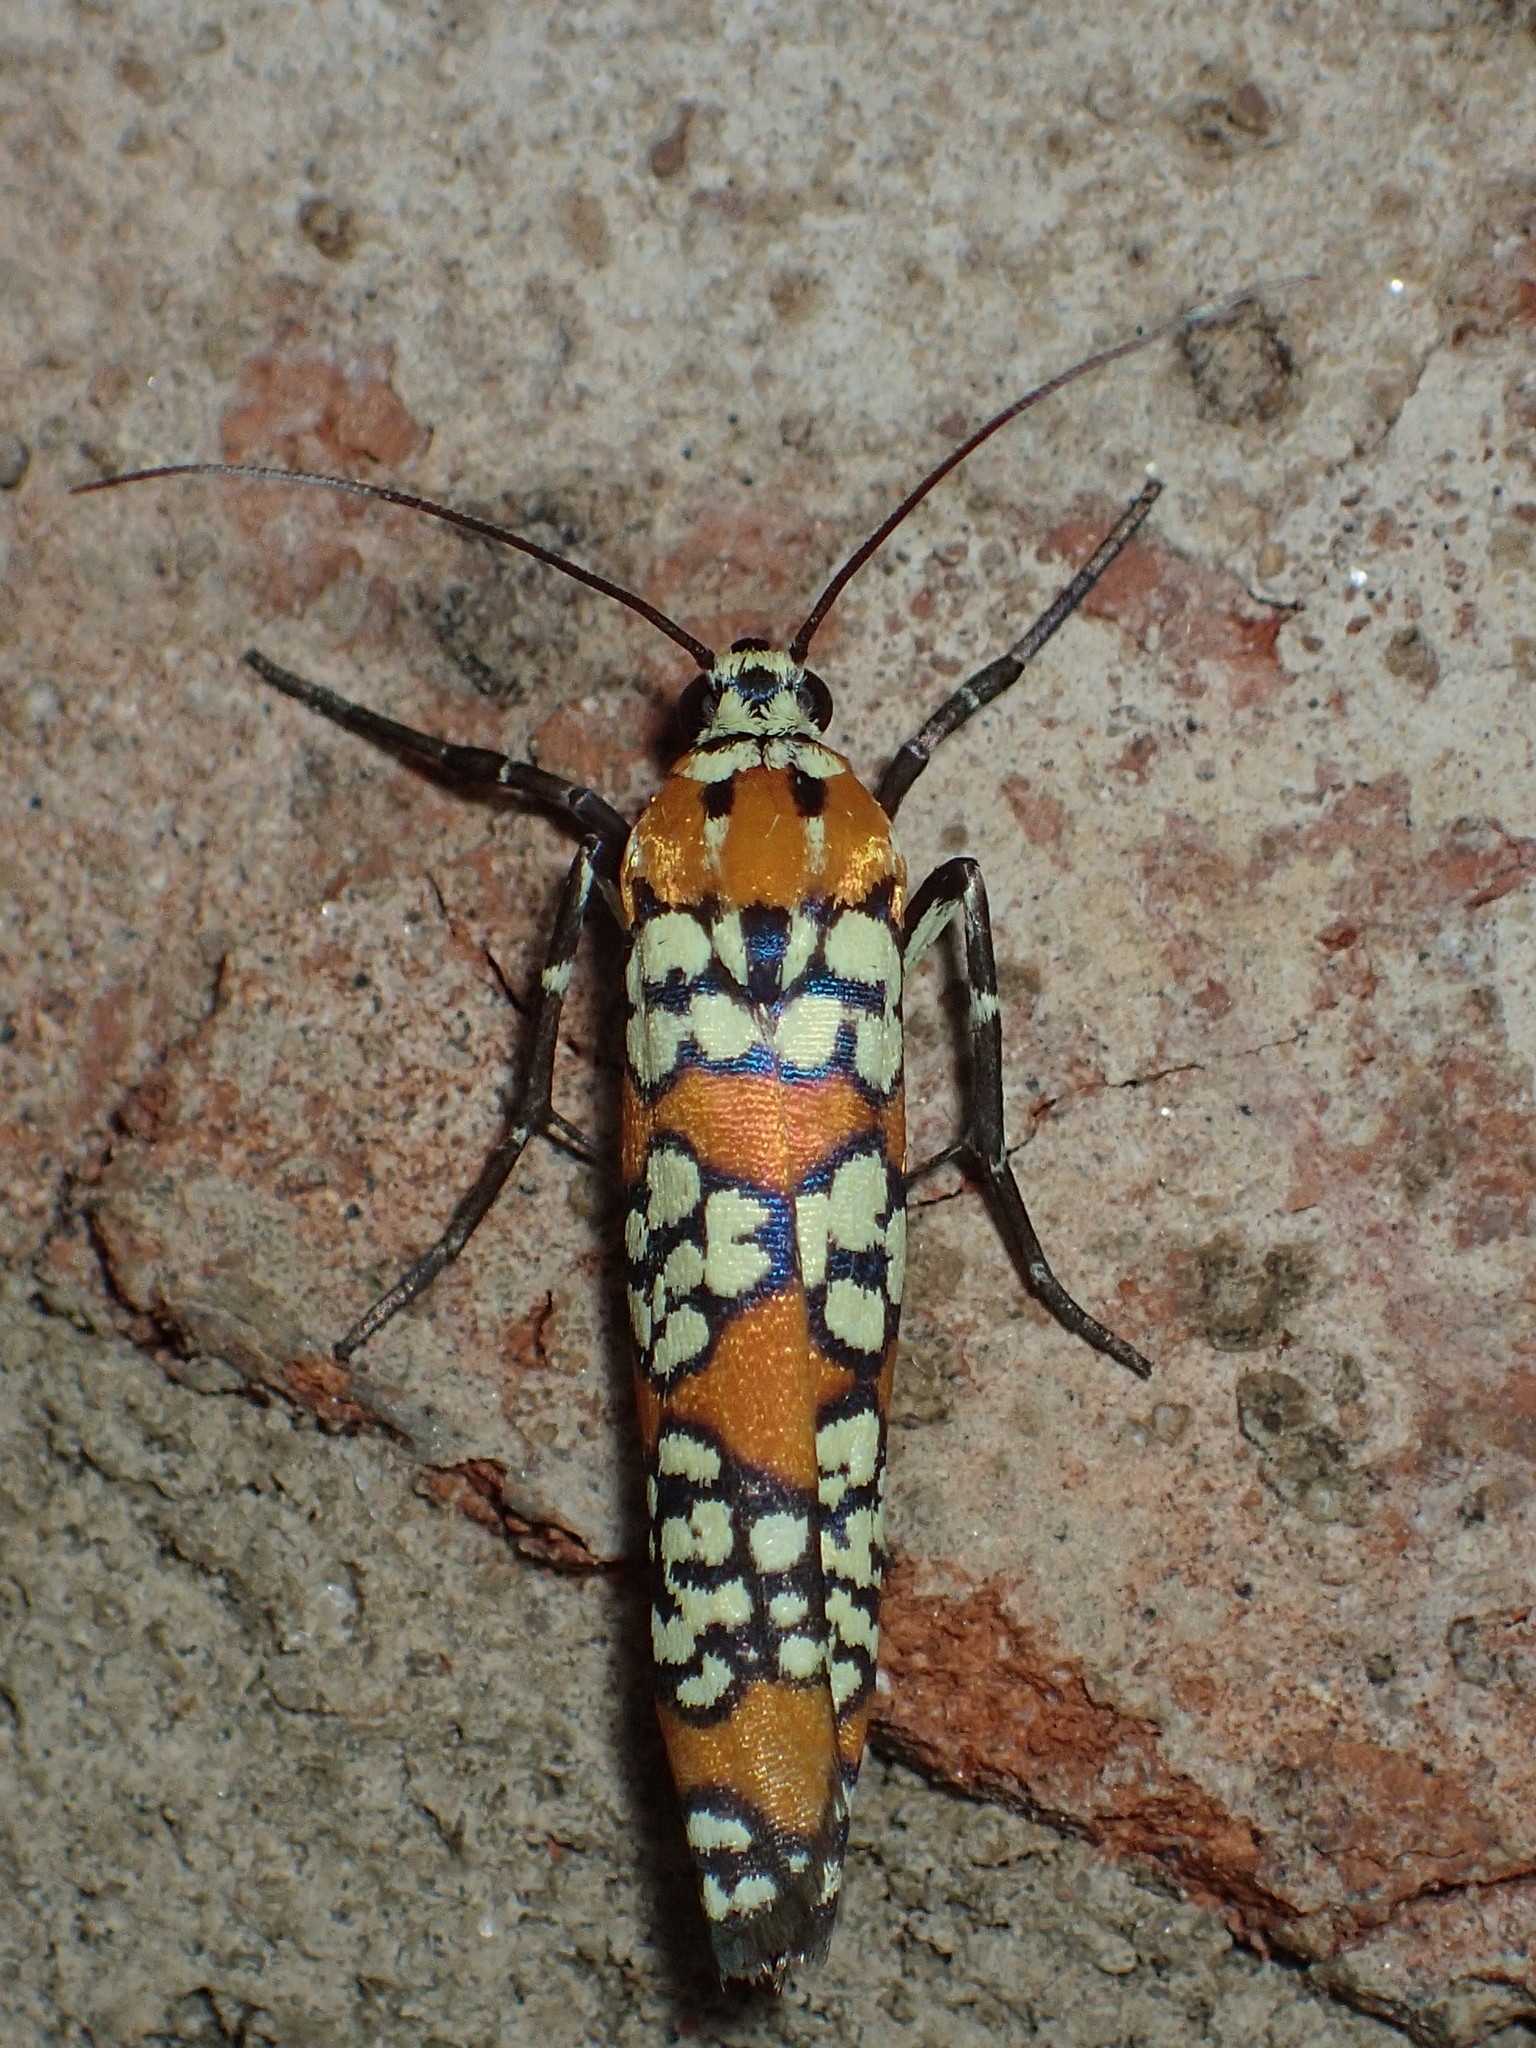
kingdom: Animalia
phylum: Arthropoda
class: Insecta
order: Lepidoptera
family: Attevidae
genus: Atteva
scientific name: Atteva punctella
